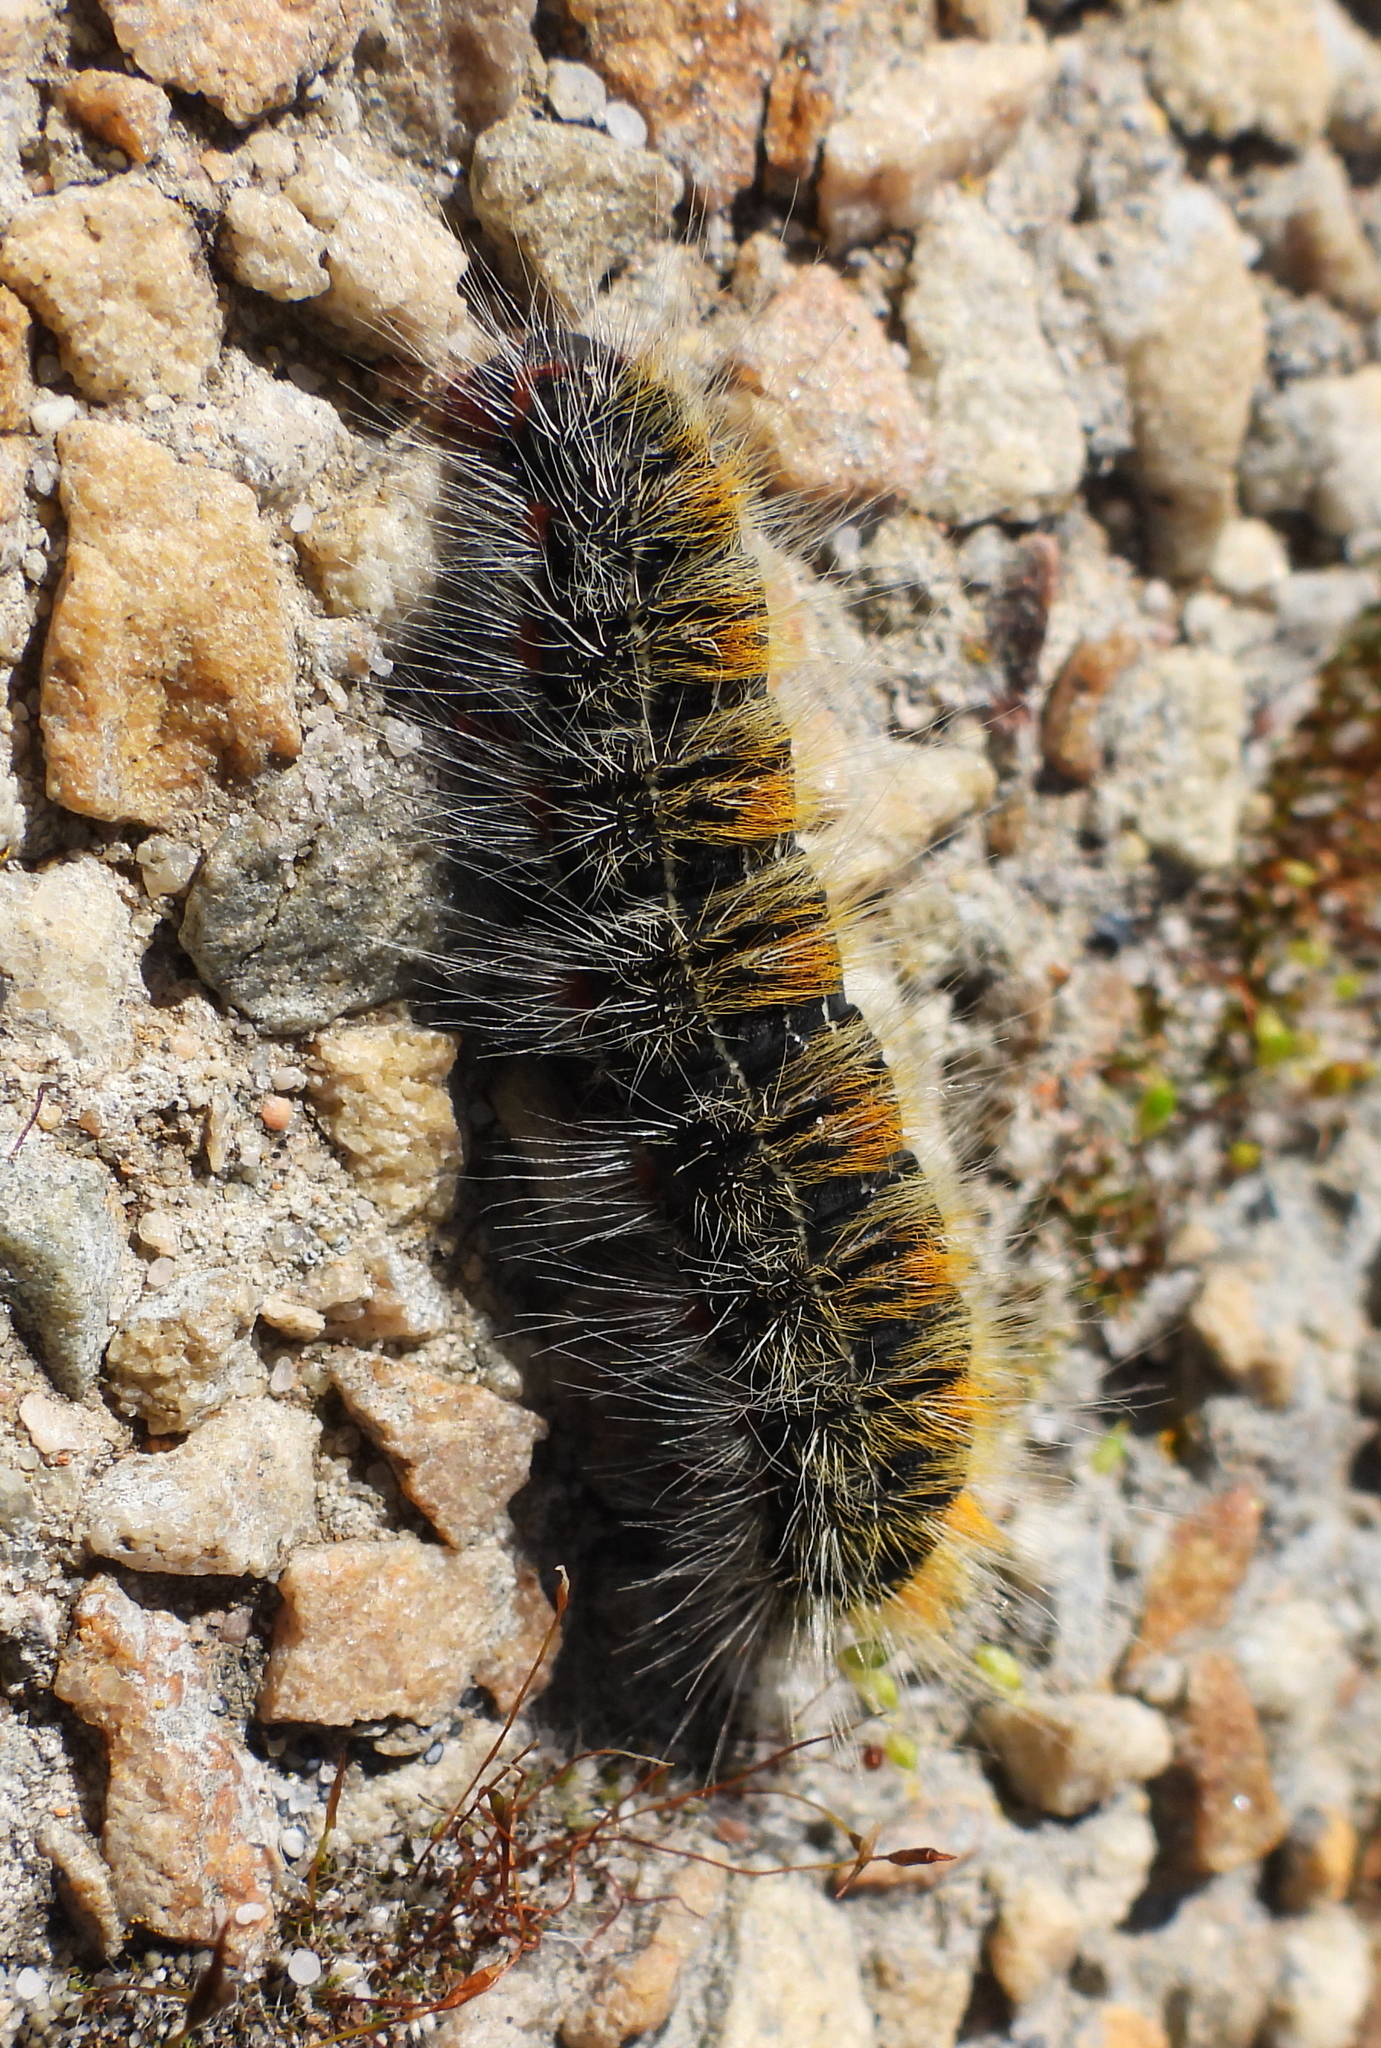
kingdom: Animalia
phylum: Arthropoda
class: Insecta
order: Lepidoptera
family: Lasiocampidae
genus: Bombycomorpha
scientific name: Bombycomorpha bifascia
